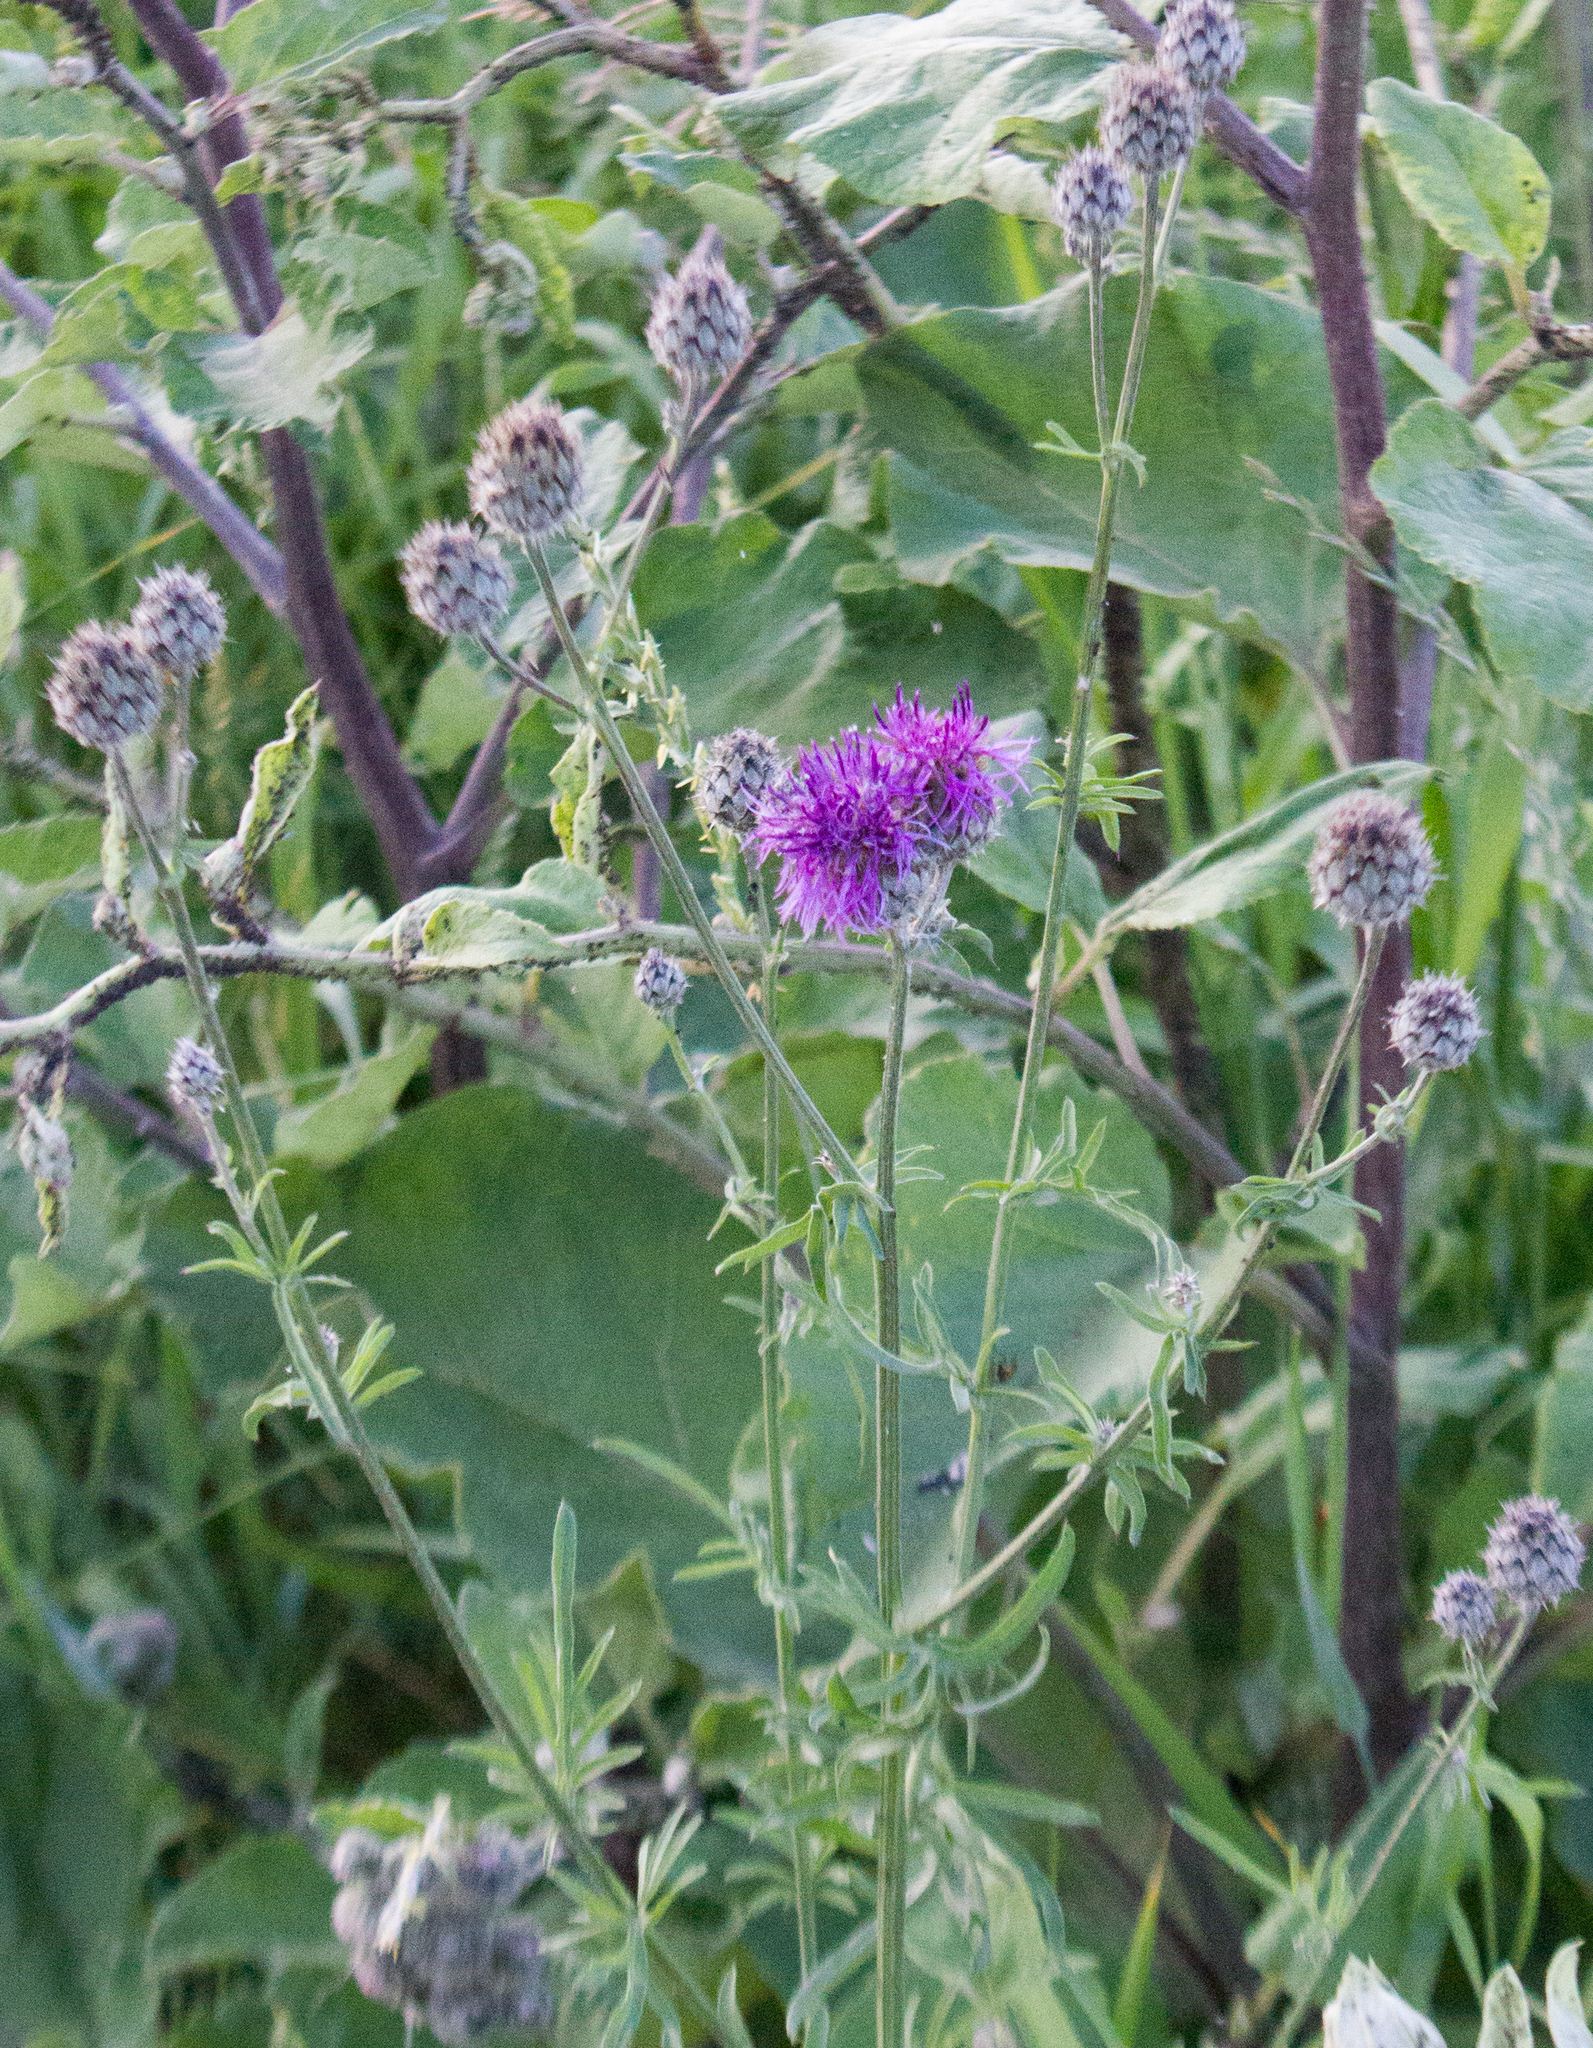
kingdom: Plantae
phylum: Tracheophyta
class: Magnoliopsida
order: Asterales
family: Asteraceae
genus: Centaurea
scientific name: Centaurea scabiosa
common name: Greater knapweed
